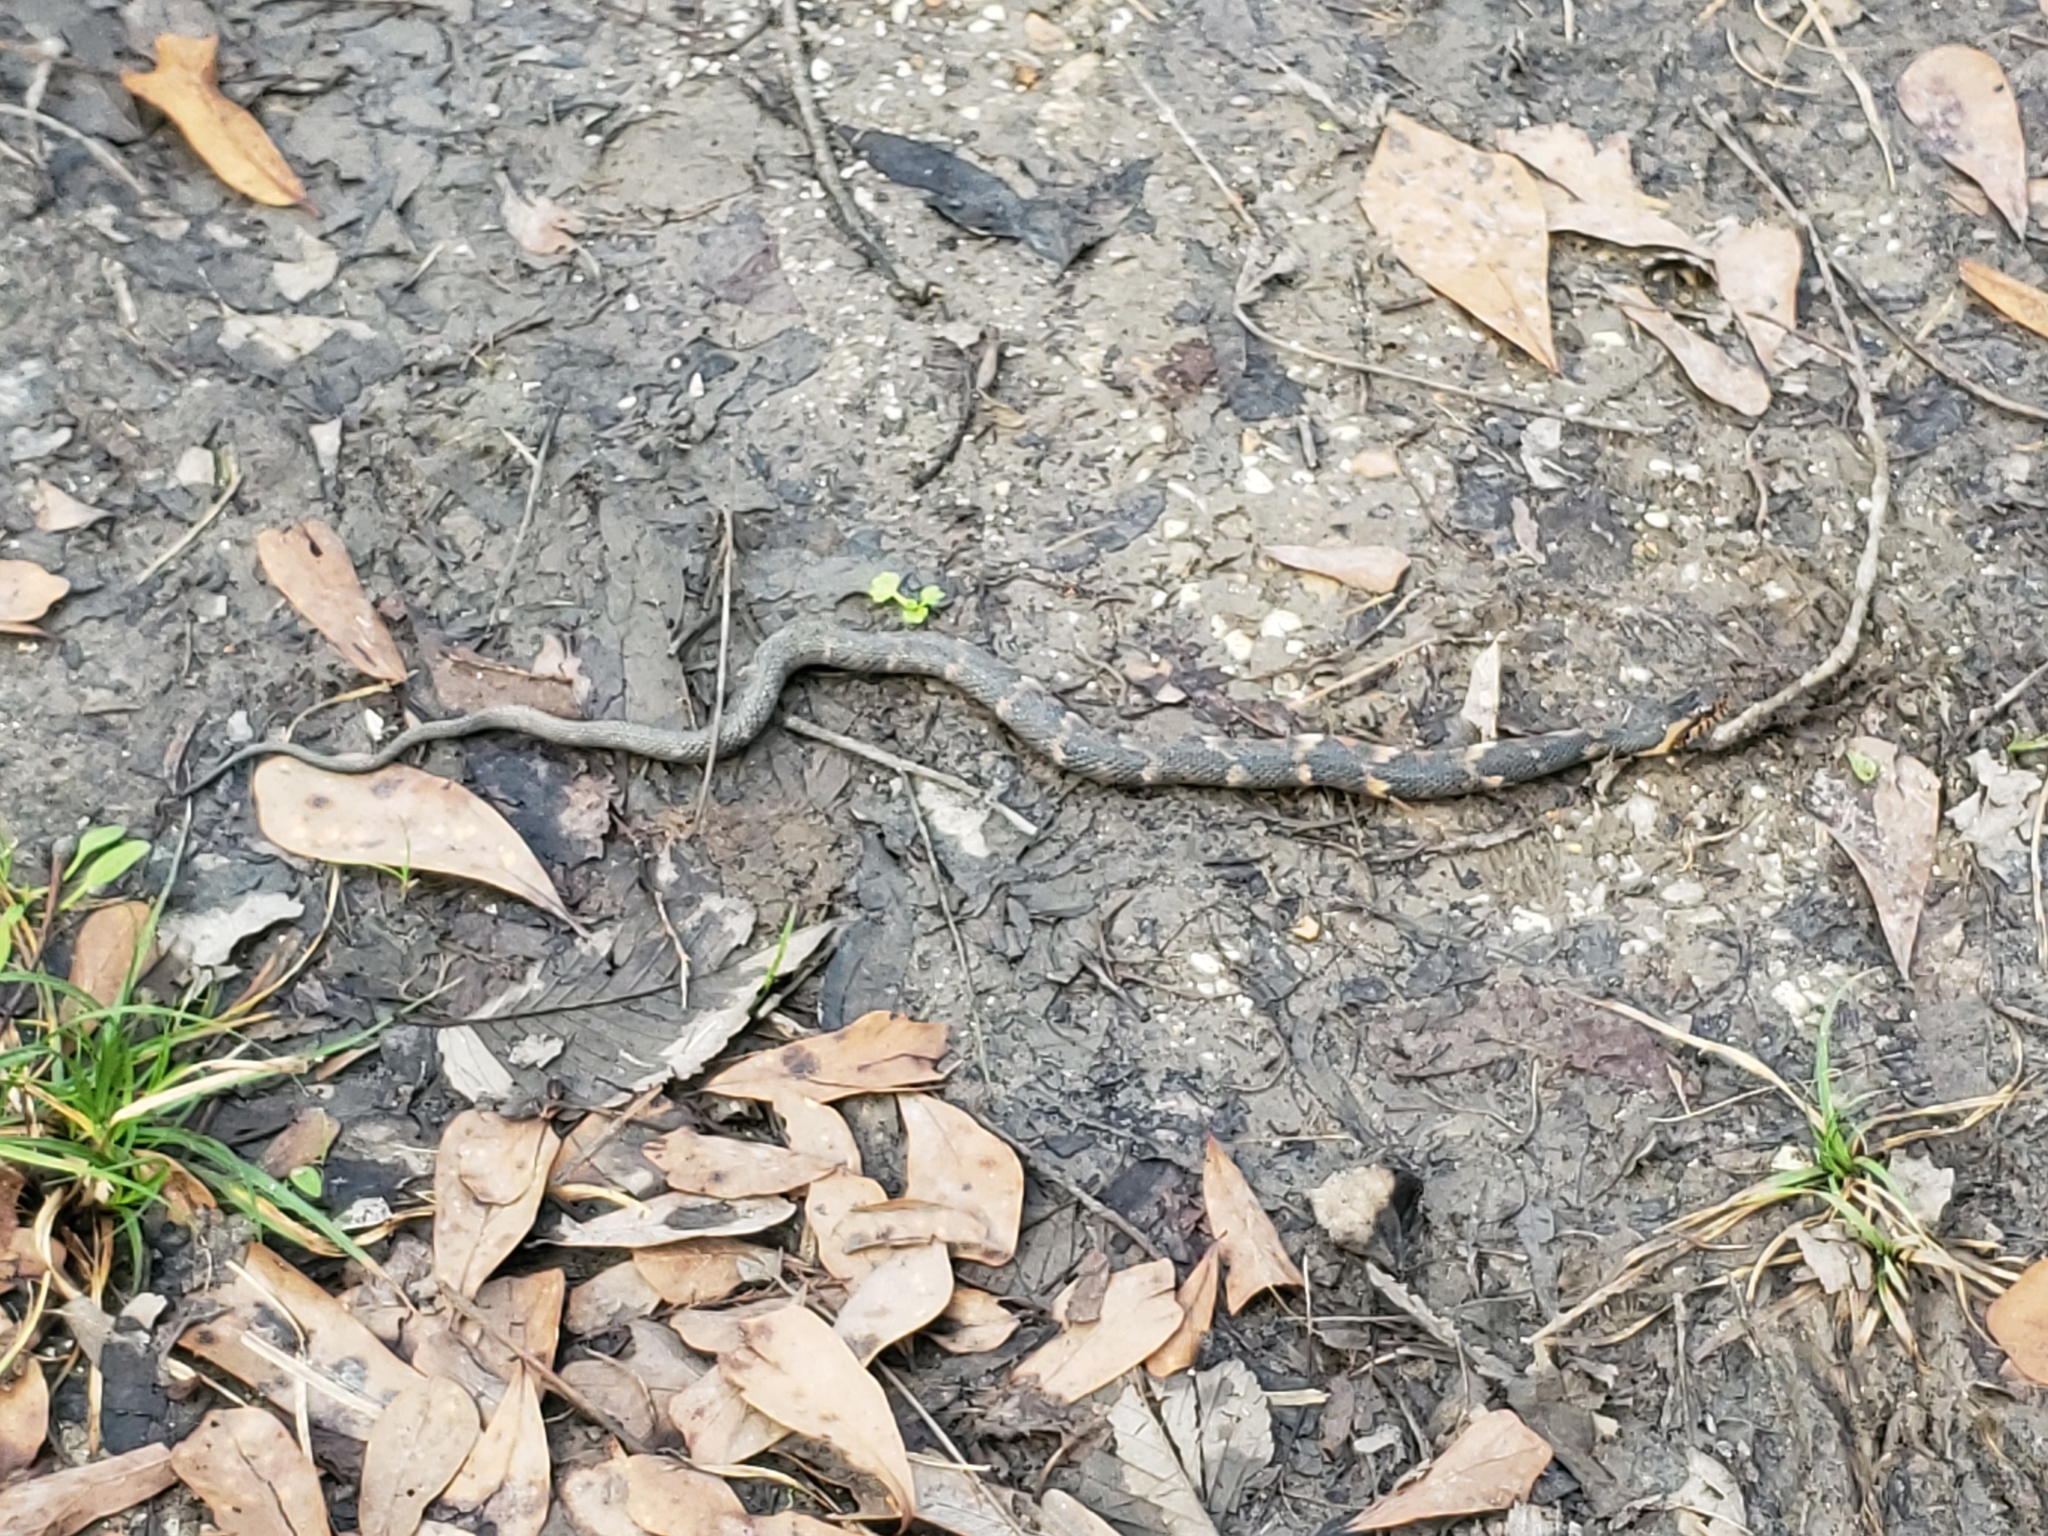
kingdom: Animalia
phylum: Chordata
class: Squamata
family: Colubridae
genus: Nerodia
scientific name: Nerodia fasciata
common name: Southern water snake
